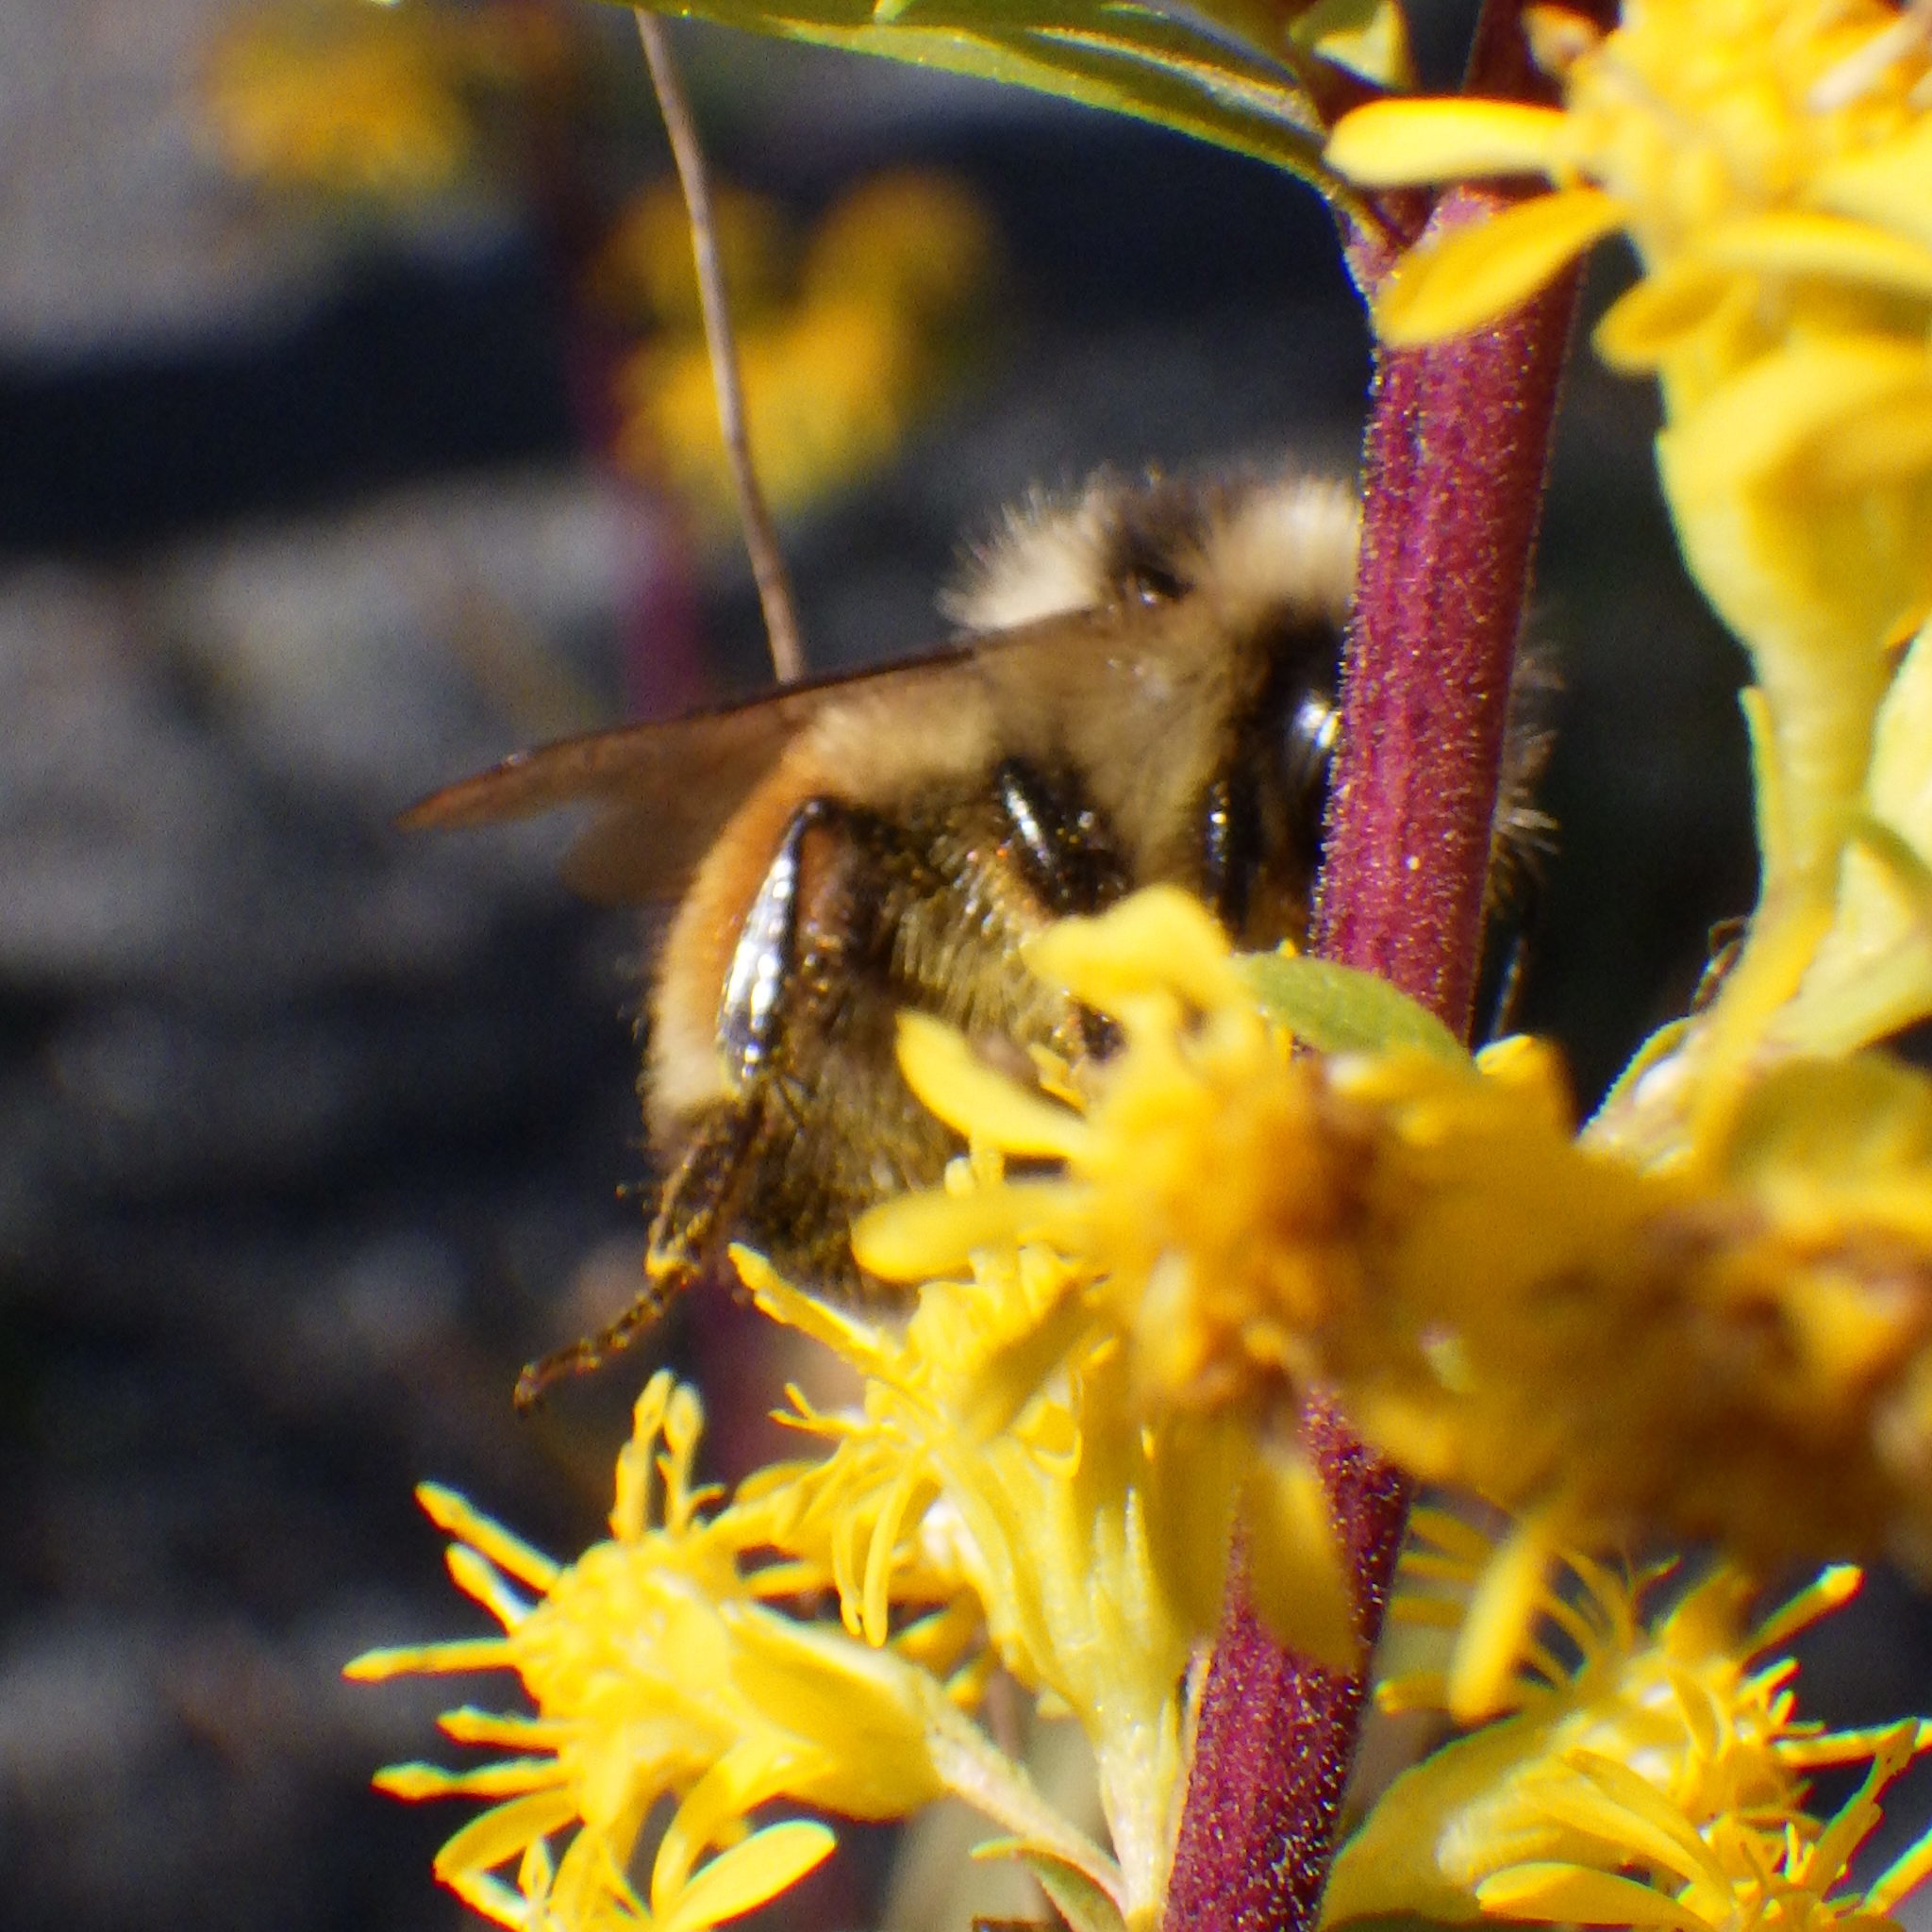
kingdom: Animalia
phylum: Arthropoda
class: Insecta
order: Hymenoptera
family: Apidae
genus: Bombus
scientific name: Bombus ternarius
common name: Tri-colored bumble bee
